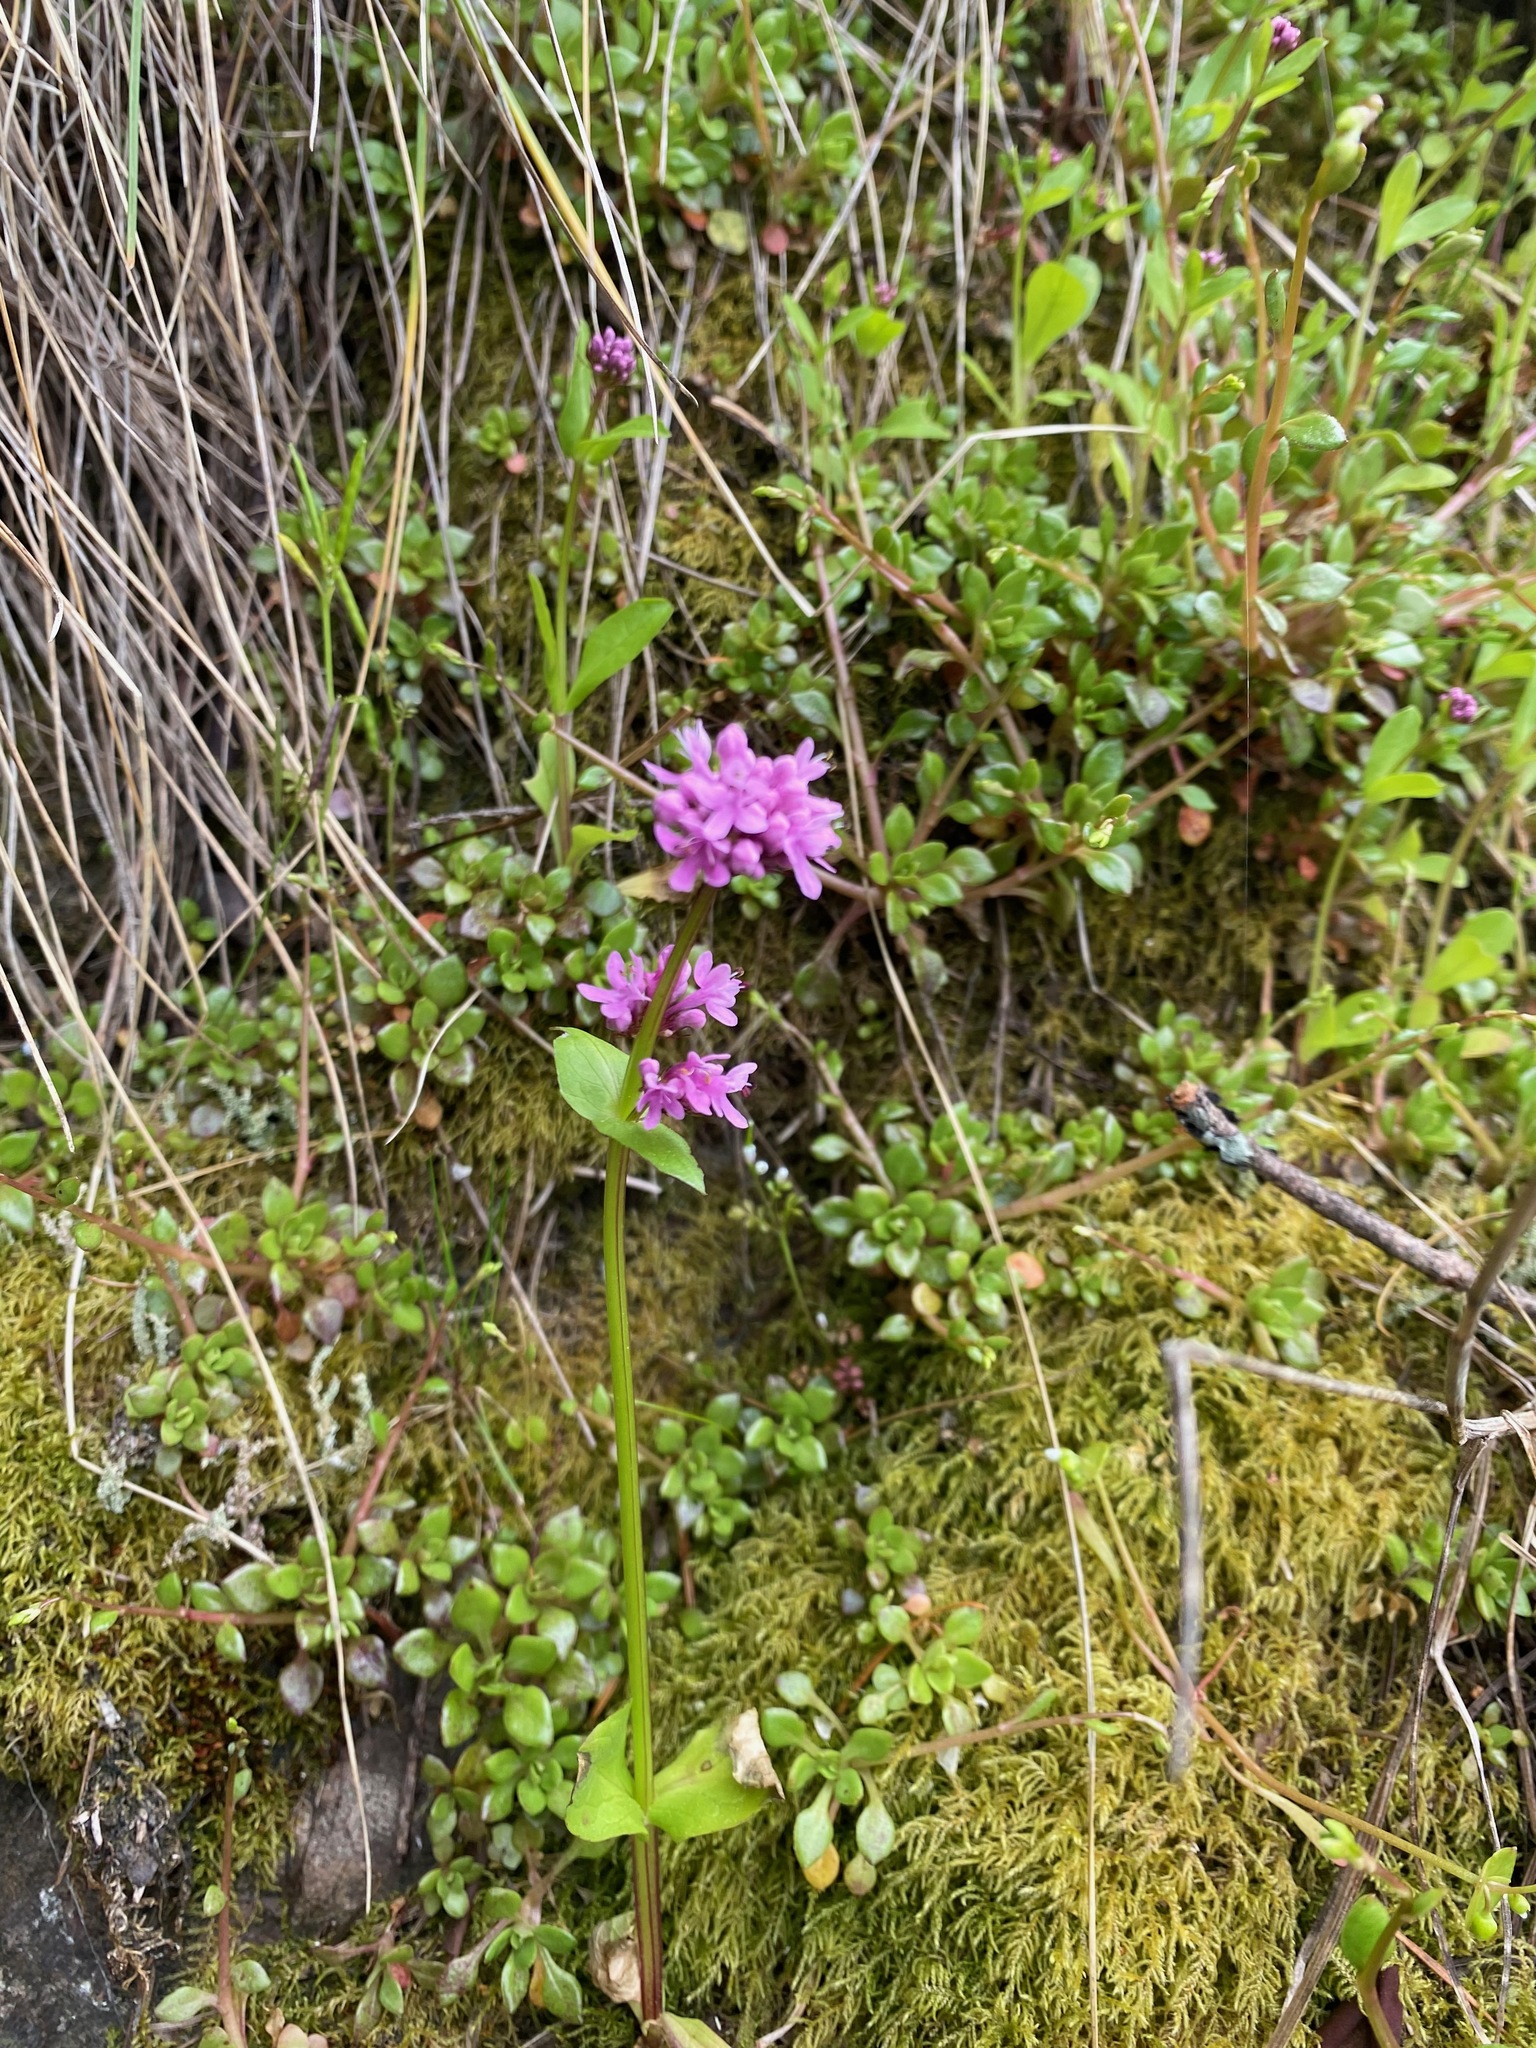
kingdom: Plantae
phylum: Tracheophyta
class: Magnoliopsida
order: Dipsacales
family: Caprifoliaceae
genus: Plectritis
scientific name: Plectritis congesta
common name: Pink plectritis
